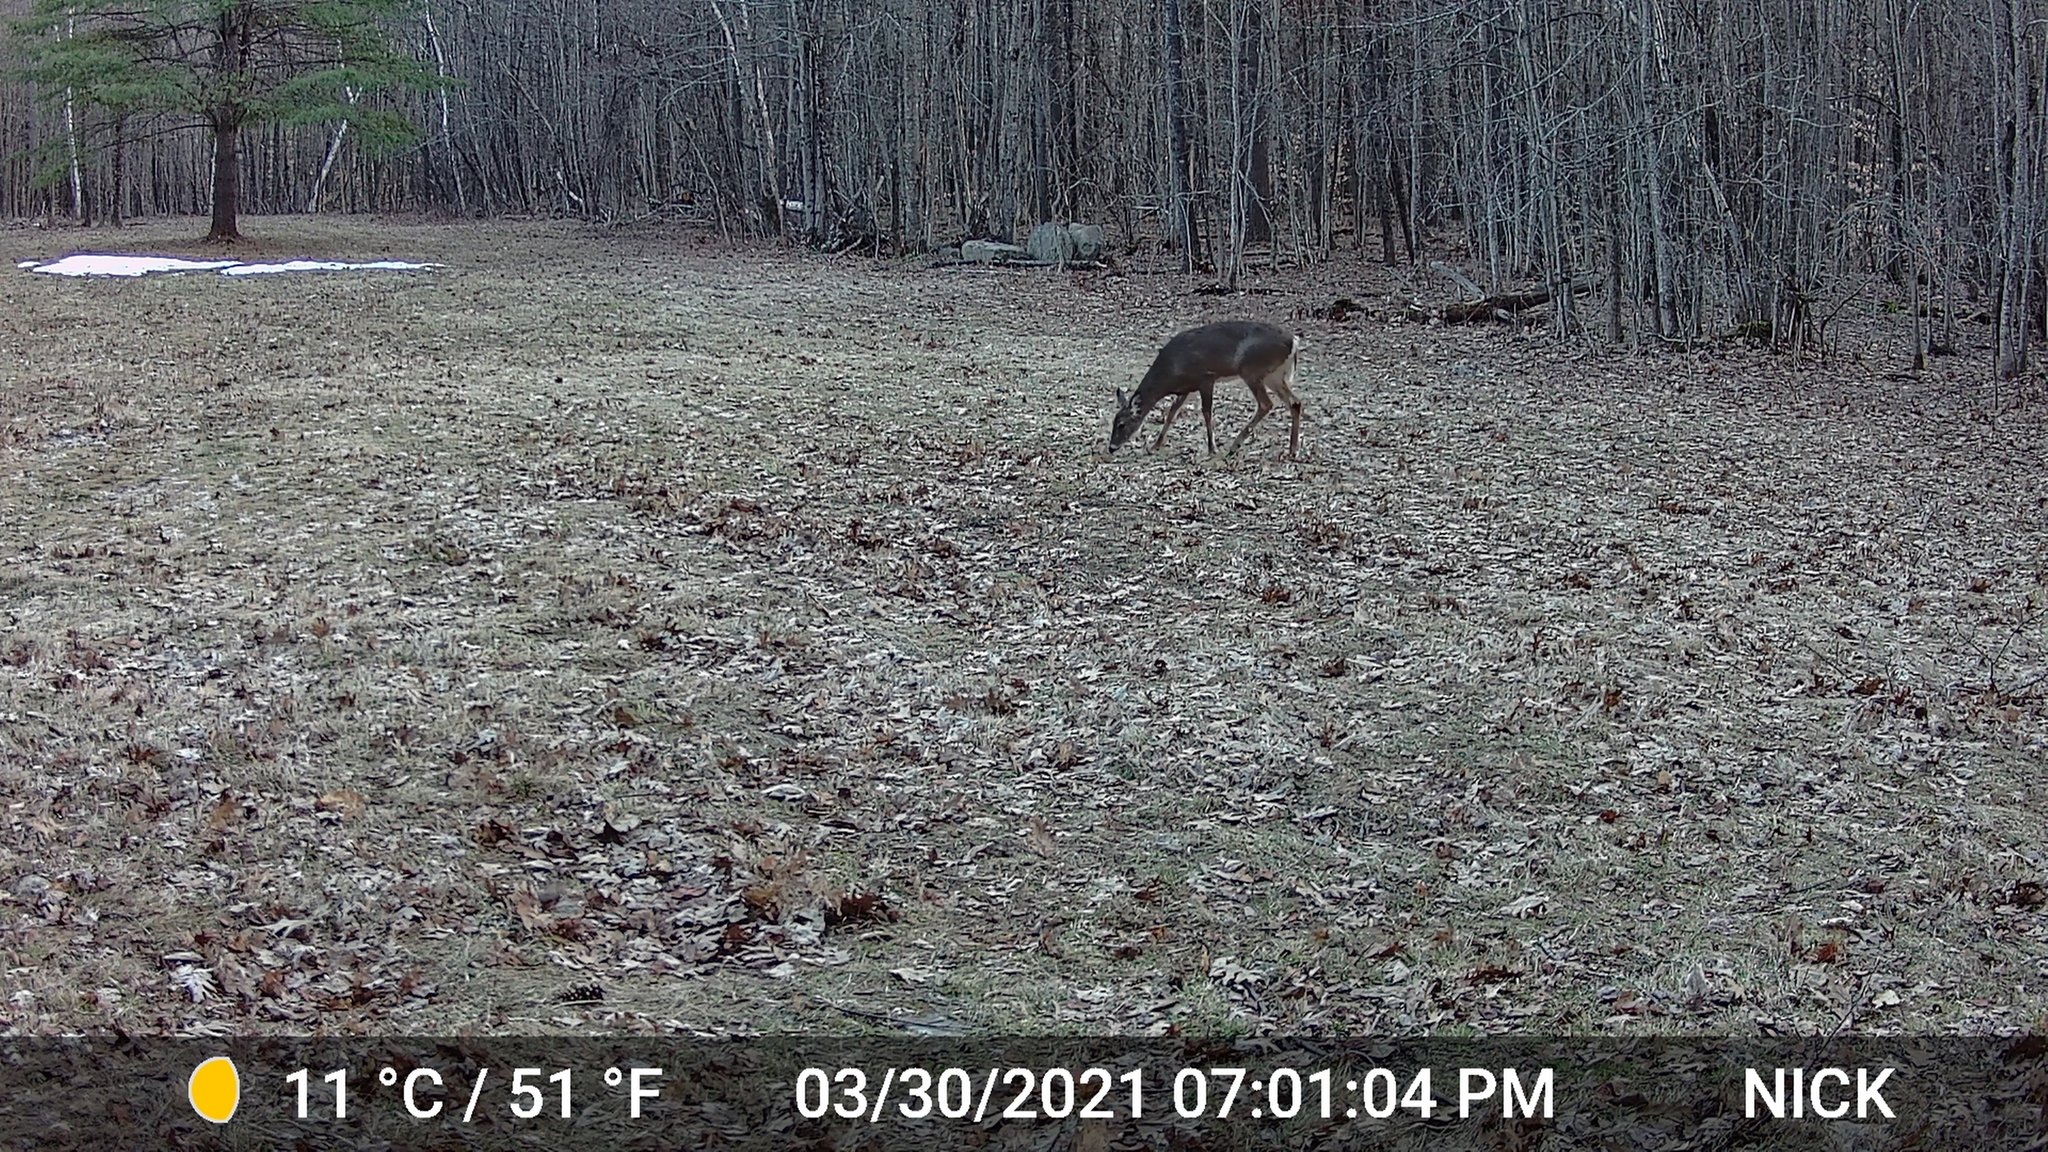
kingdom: Animalia
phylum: Chordata
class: Mammalia
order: Artiodactyla
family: Cervidae
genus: Odocoileus
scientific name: Odocoileus virginianus
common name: White-tailed deer
